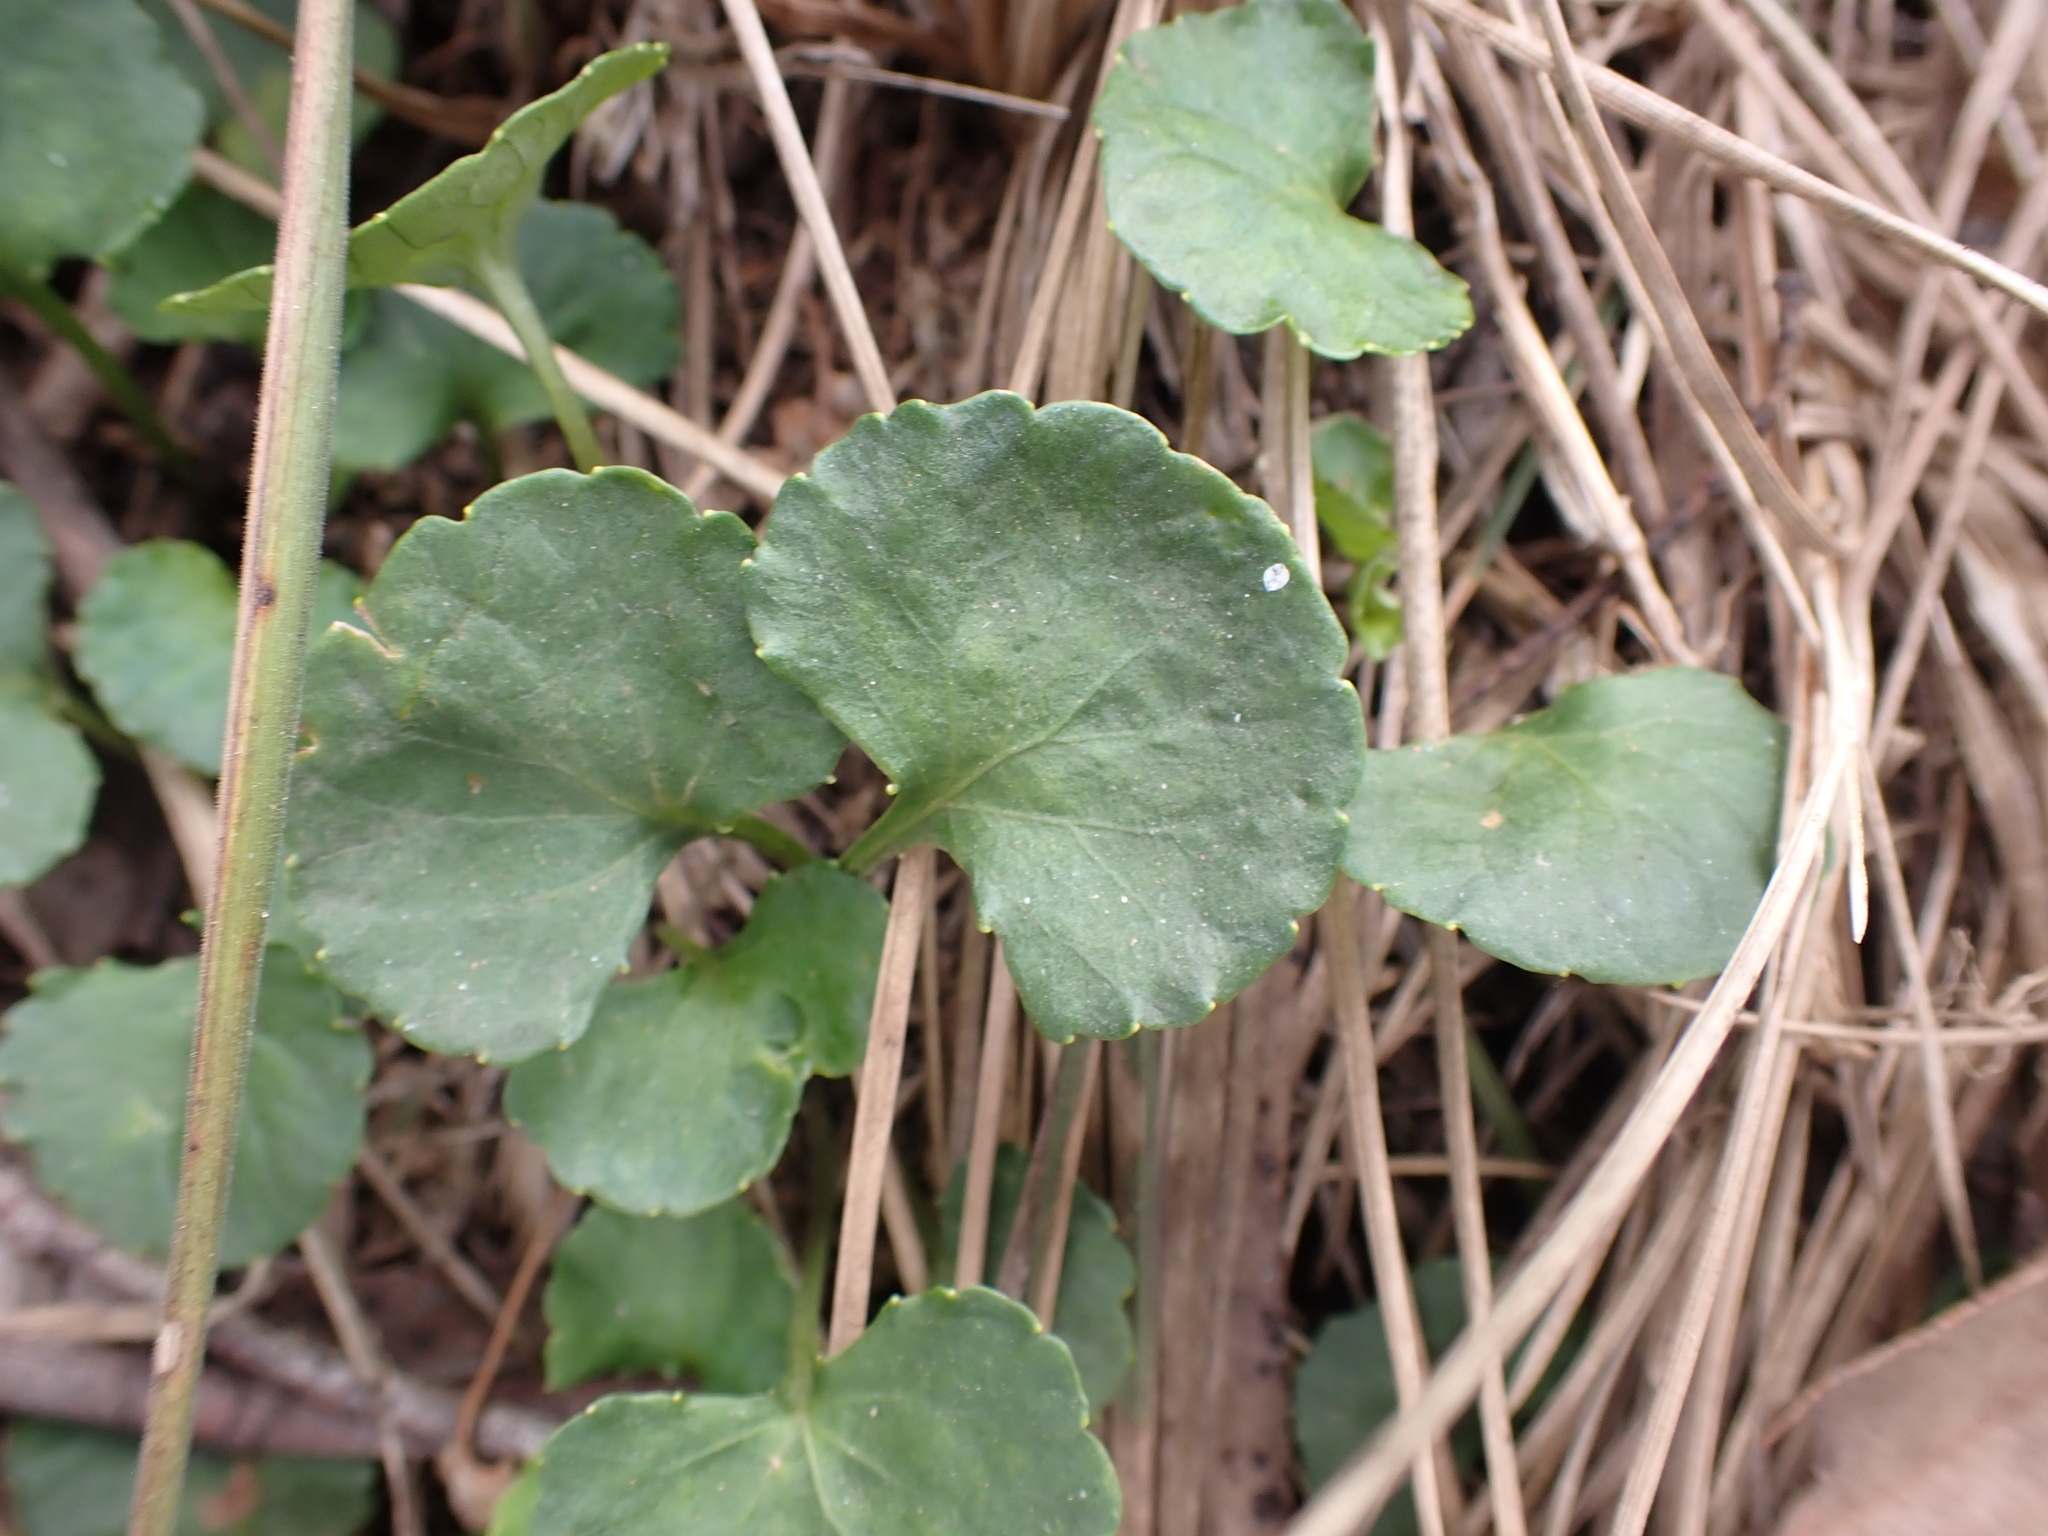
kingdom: Plantae
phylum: Tracheophyta
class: Magnoliopsida
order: Malpighiales
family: Violaceae
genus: Viola
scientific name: Viola hederacea
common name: Australian violet
